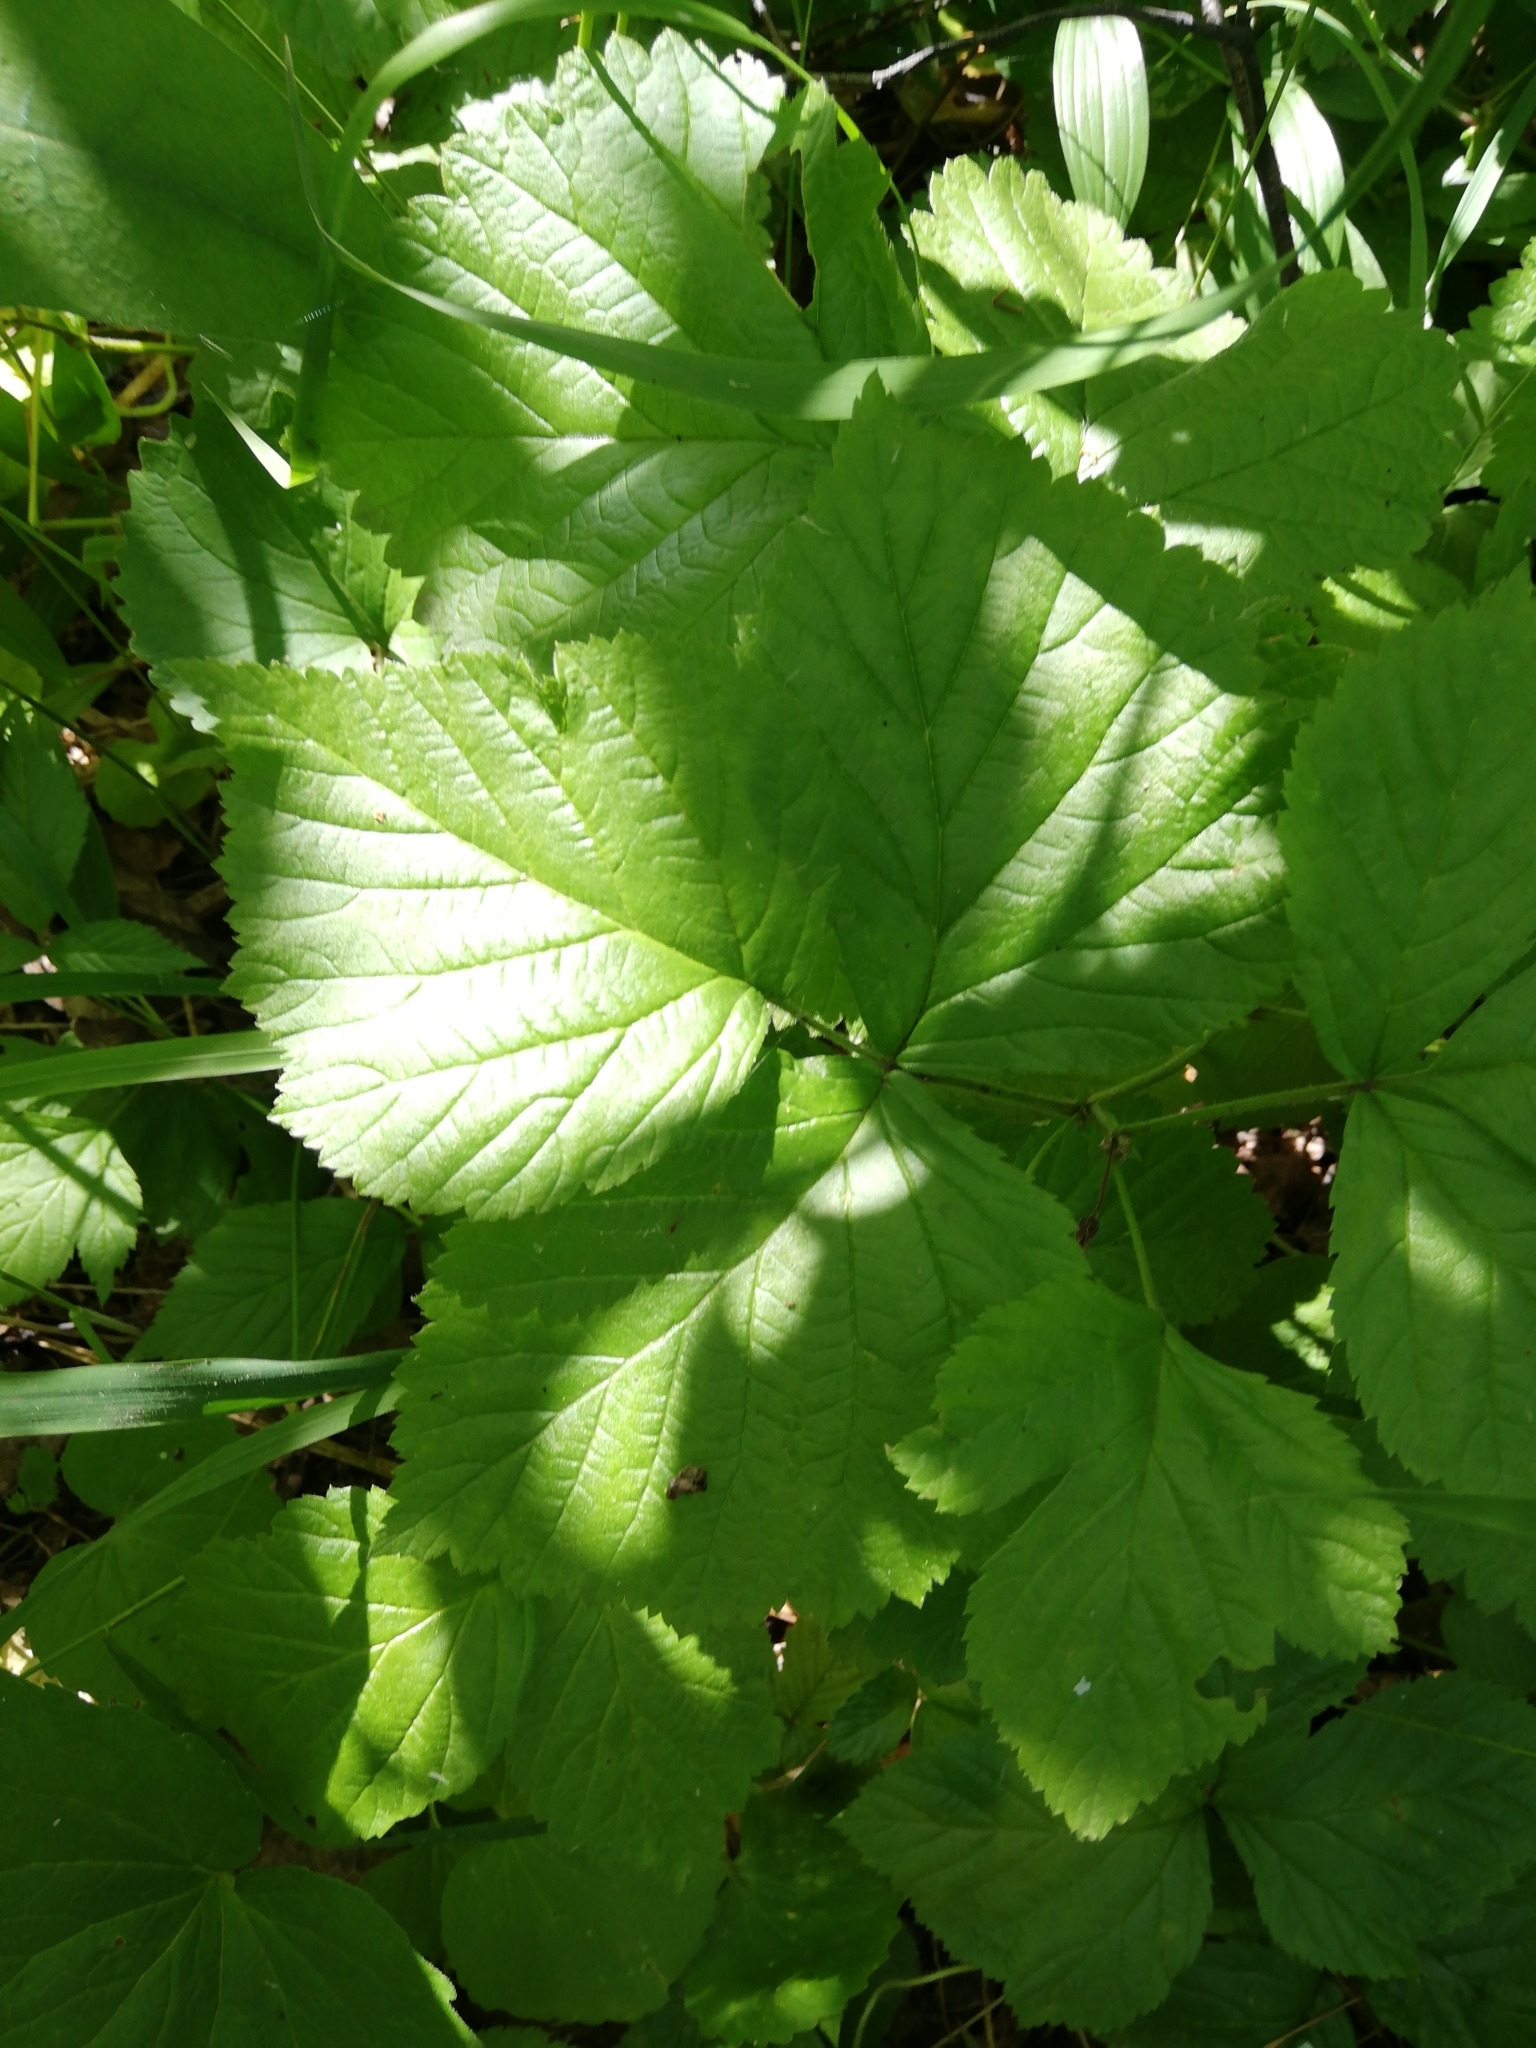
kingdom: Plantae
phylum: Tracheophyta
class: Magnoliopsida
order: Rosales
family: Rosaceae
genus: Rubus
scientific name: Rubus saxatilis
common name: Stone bramble
